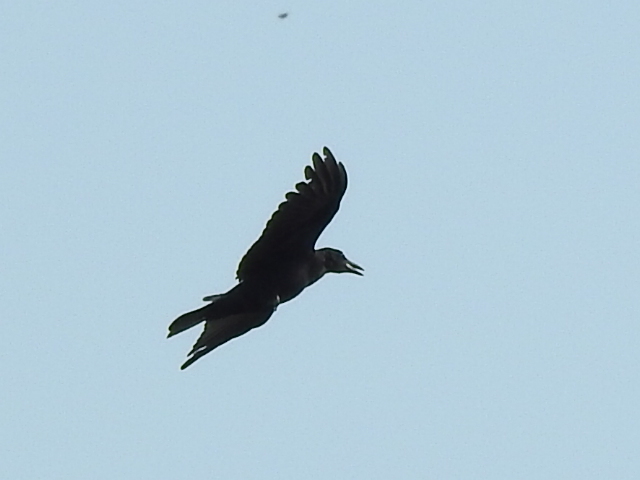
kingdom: Animalia
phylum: Chordata
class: Aves
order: Passeriformes
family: Corvidae
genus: Corvus
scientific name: Corvus brachyrhynchos
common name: American crow
